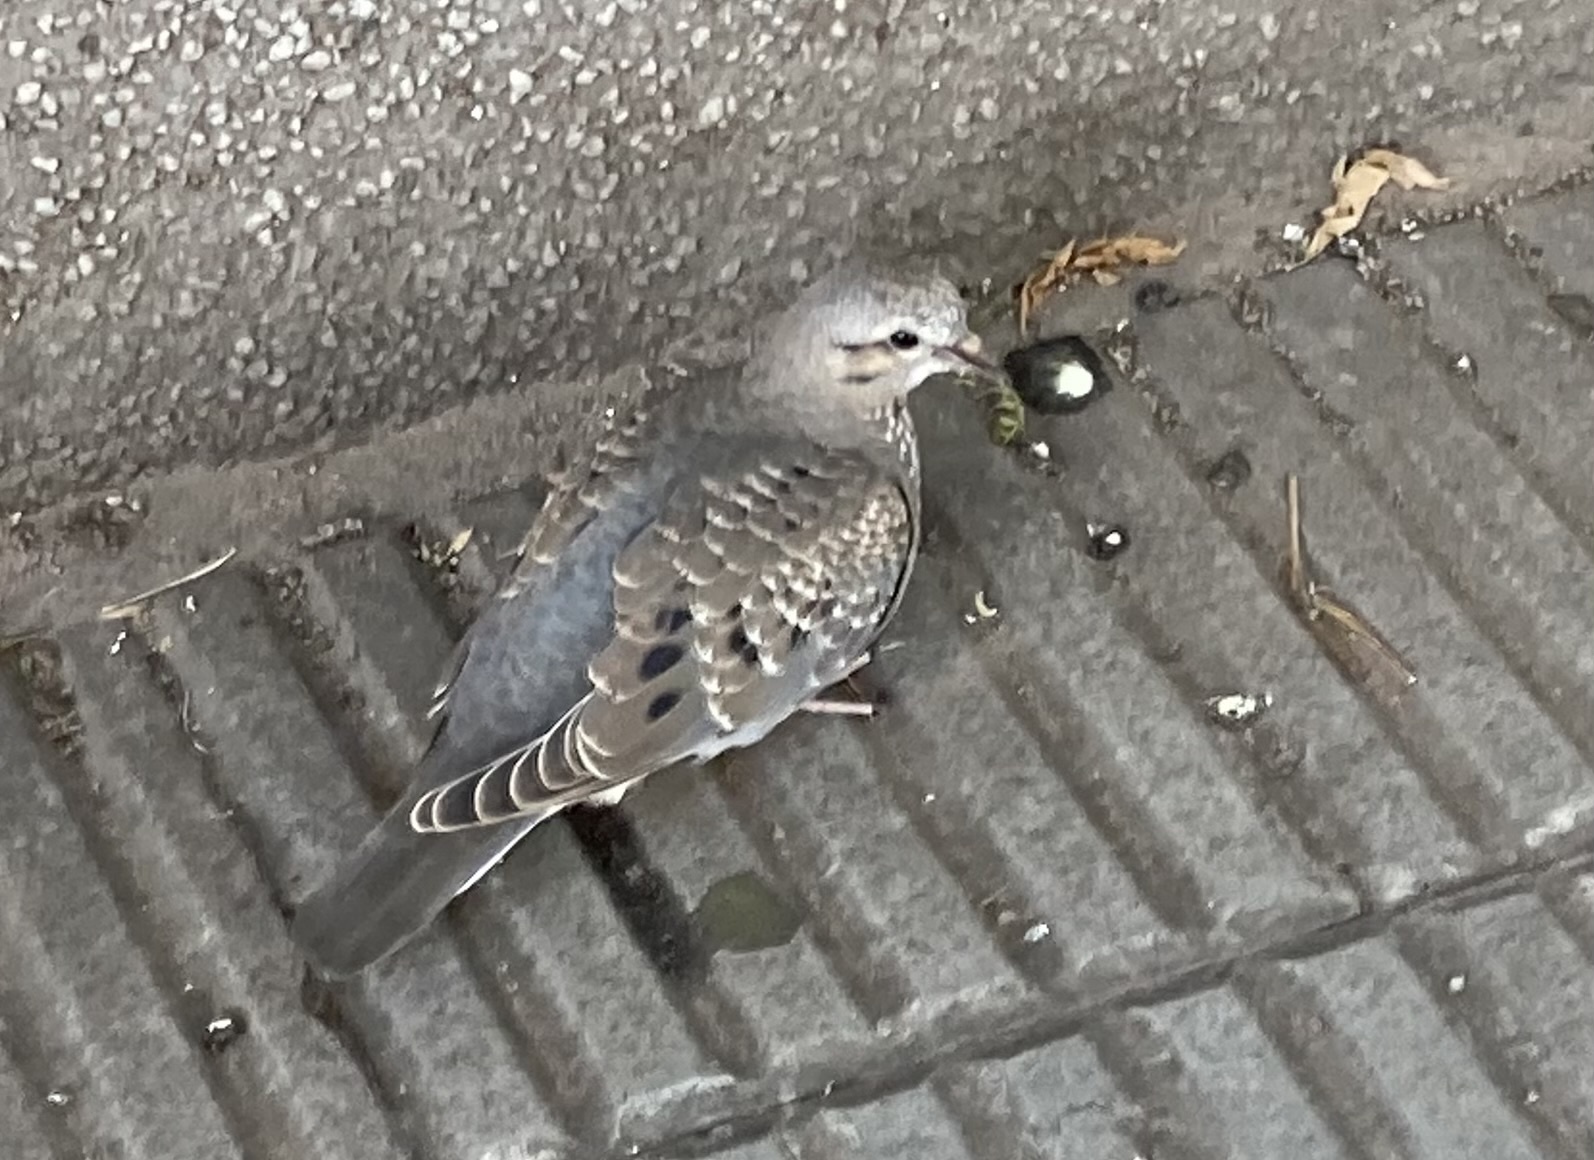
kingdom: Animalia
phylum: Chordata
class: Aves
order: Columbiformes
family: Columbidae
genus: Zenaida
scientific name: Zenaida auriculata
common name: Eared dove
